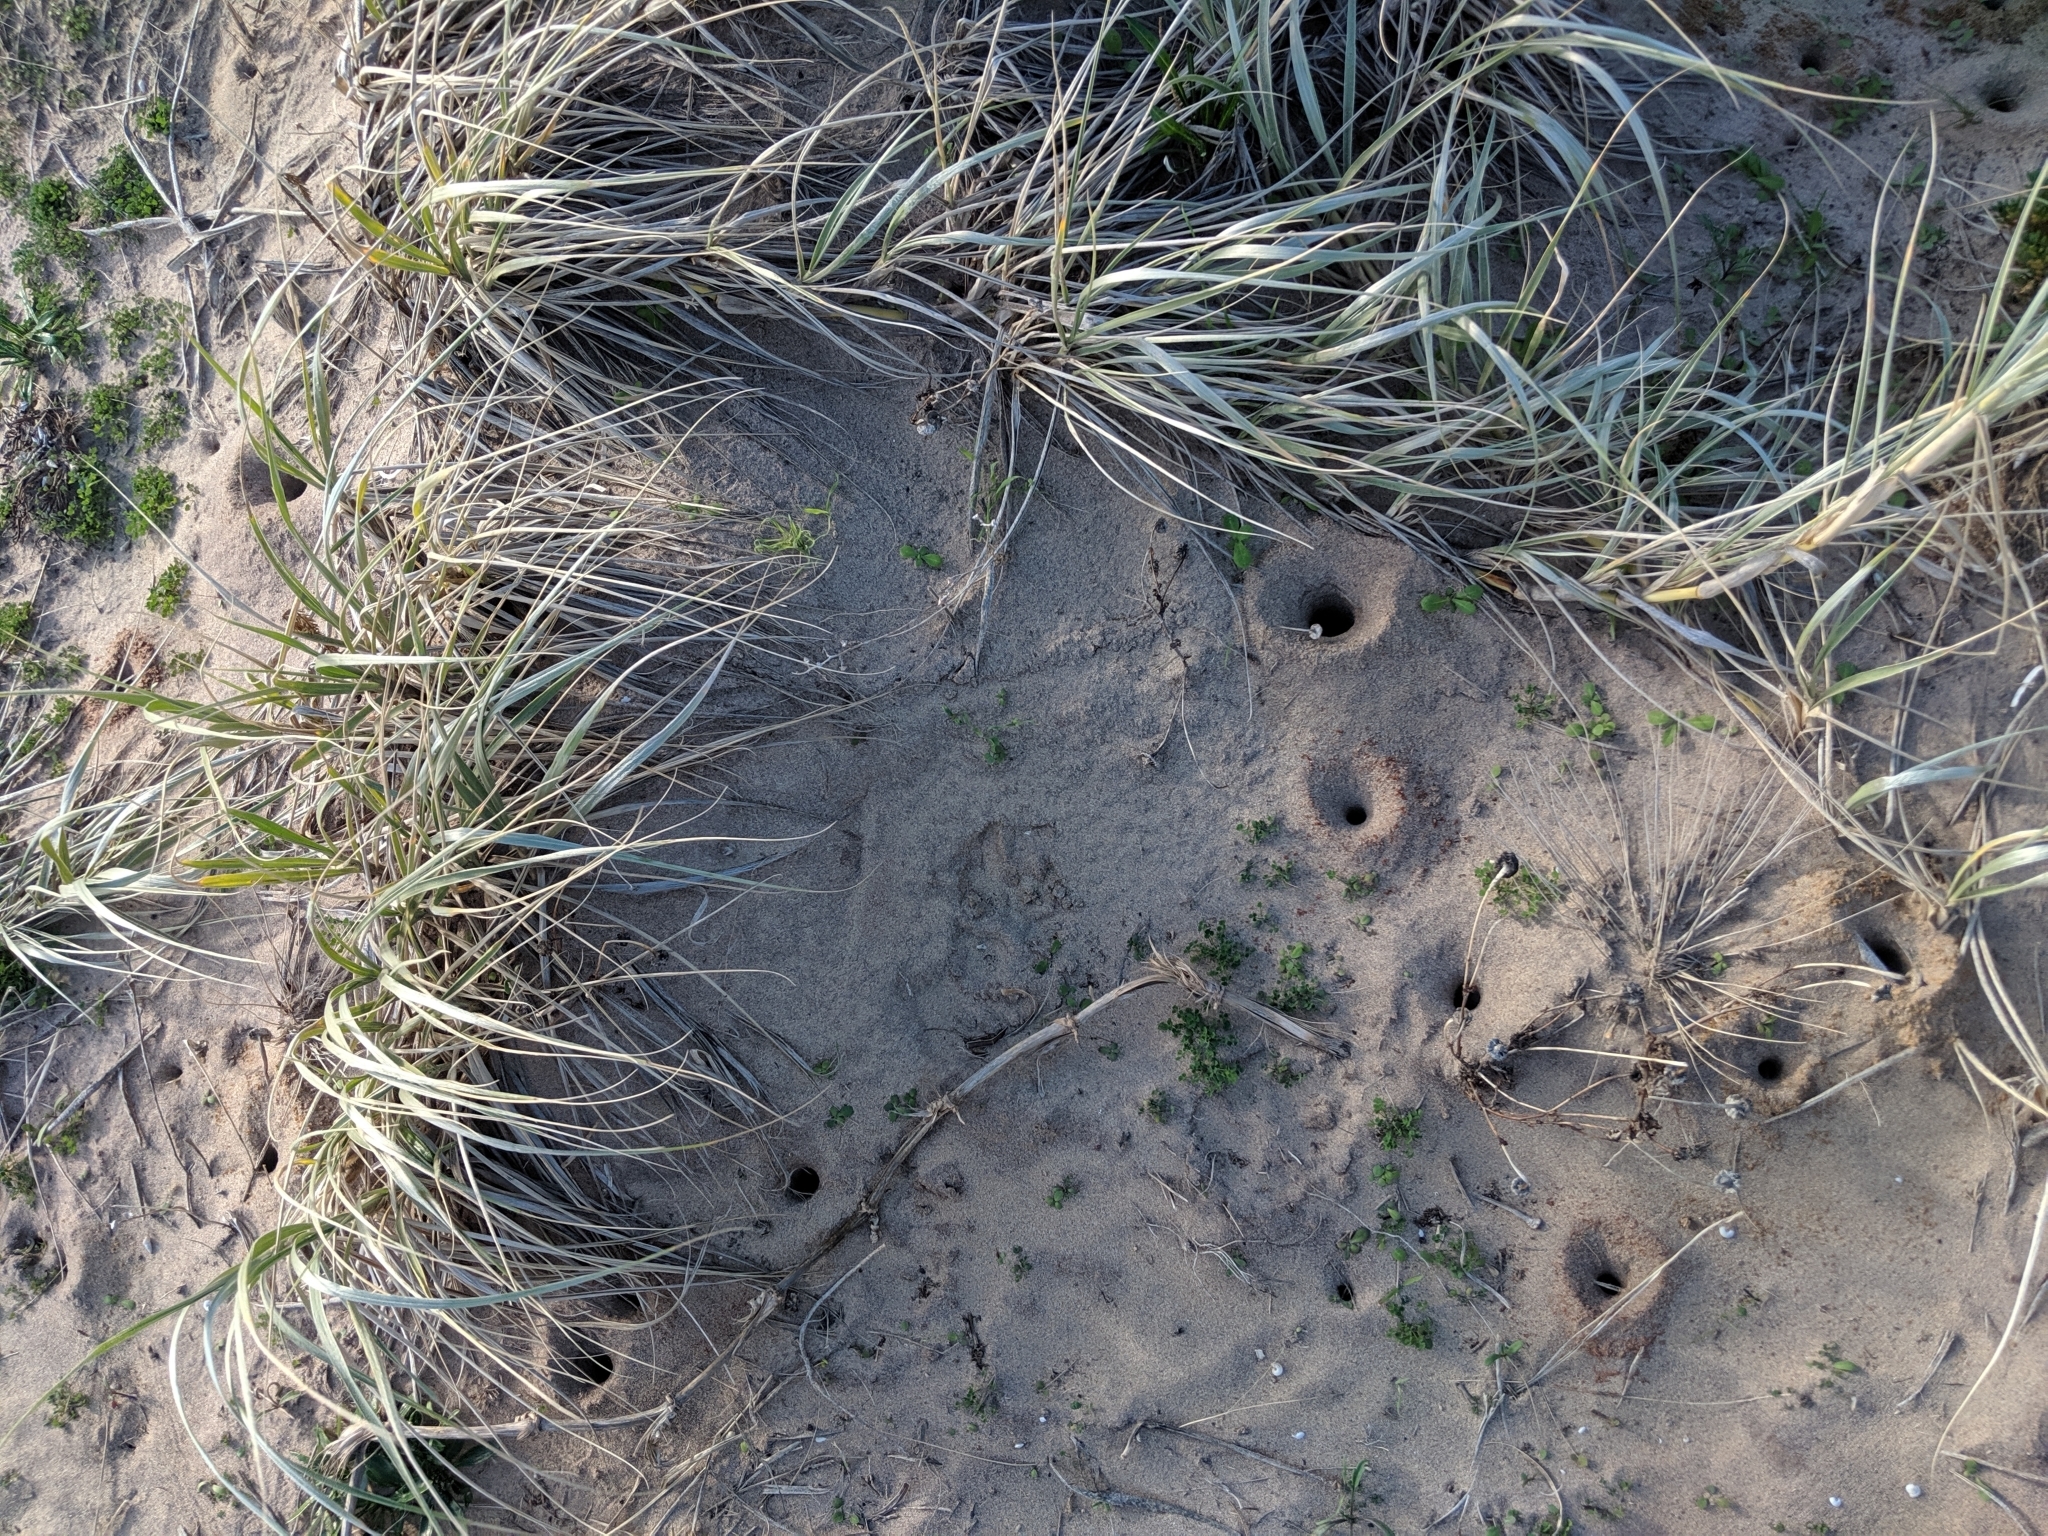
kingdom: Plantae
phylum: Tracheophyta
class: Liliopsida
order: Poales
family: Poaceae
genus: Spinifex
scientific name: Spinifex sericeus
